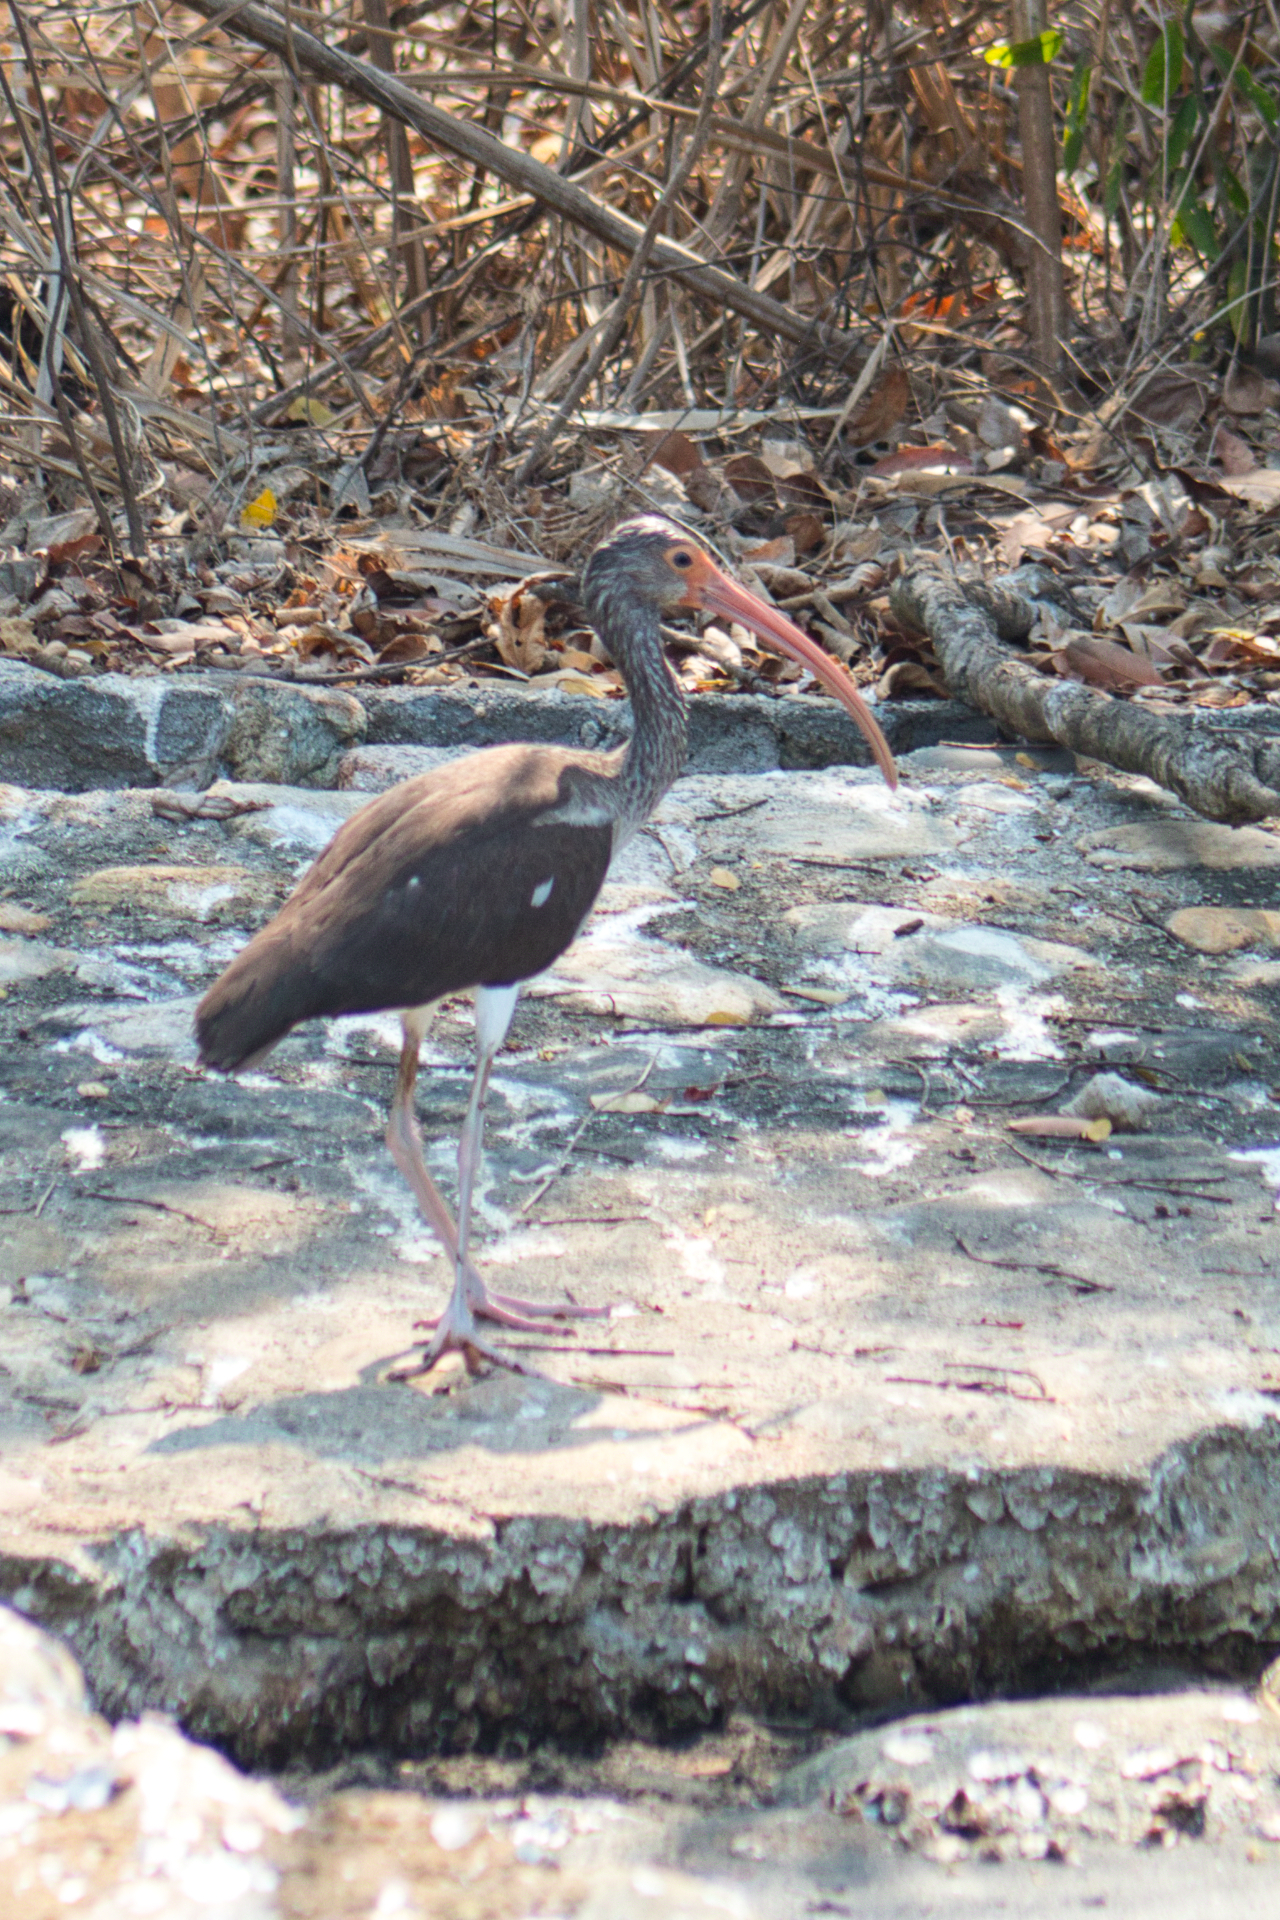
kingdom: Animalia
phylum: Chordata
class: Aves
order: Pelecaniformes
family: Threskiornithidae
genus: Eudocimus
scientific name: Eudocimus albus
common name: White ibis
